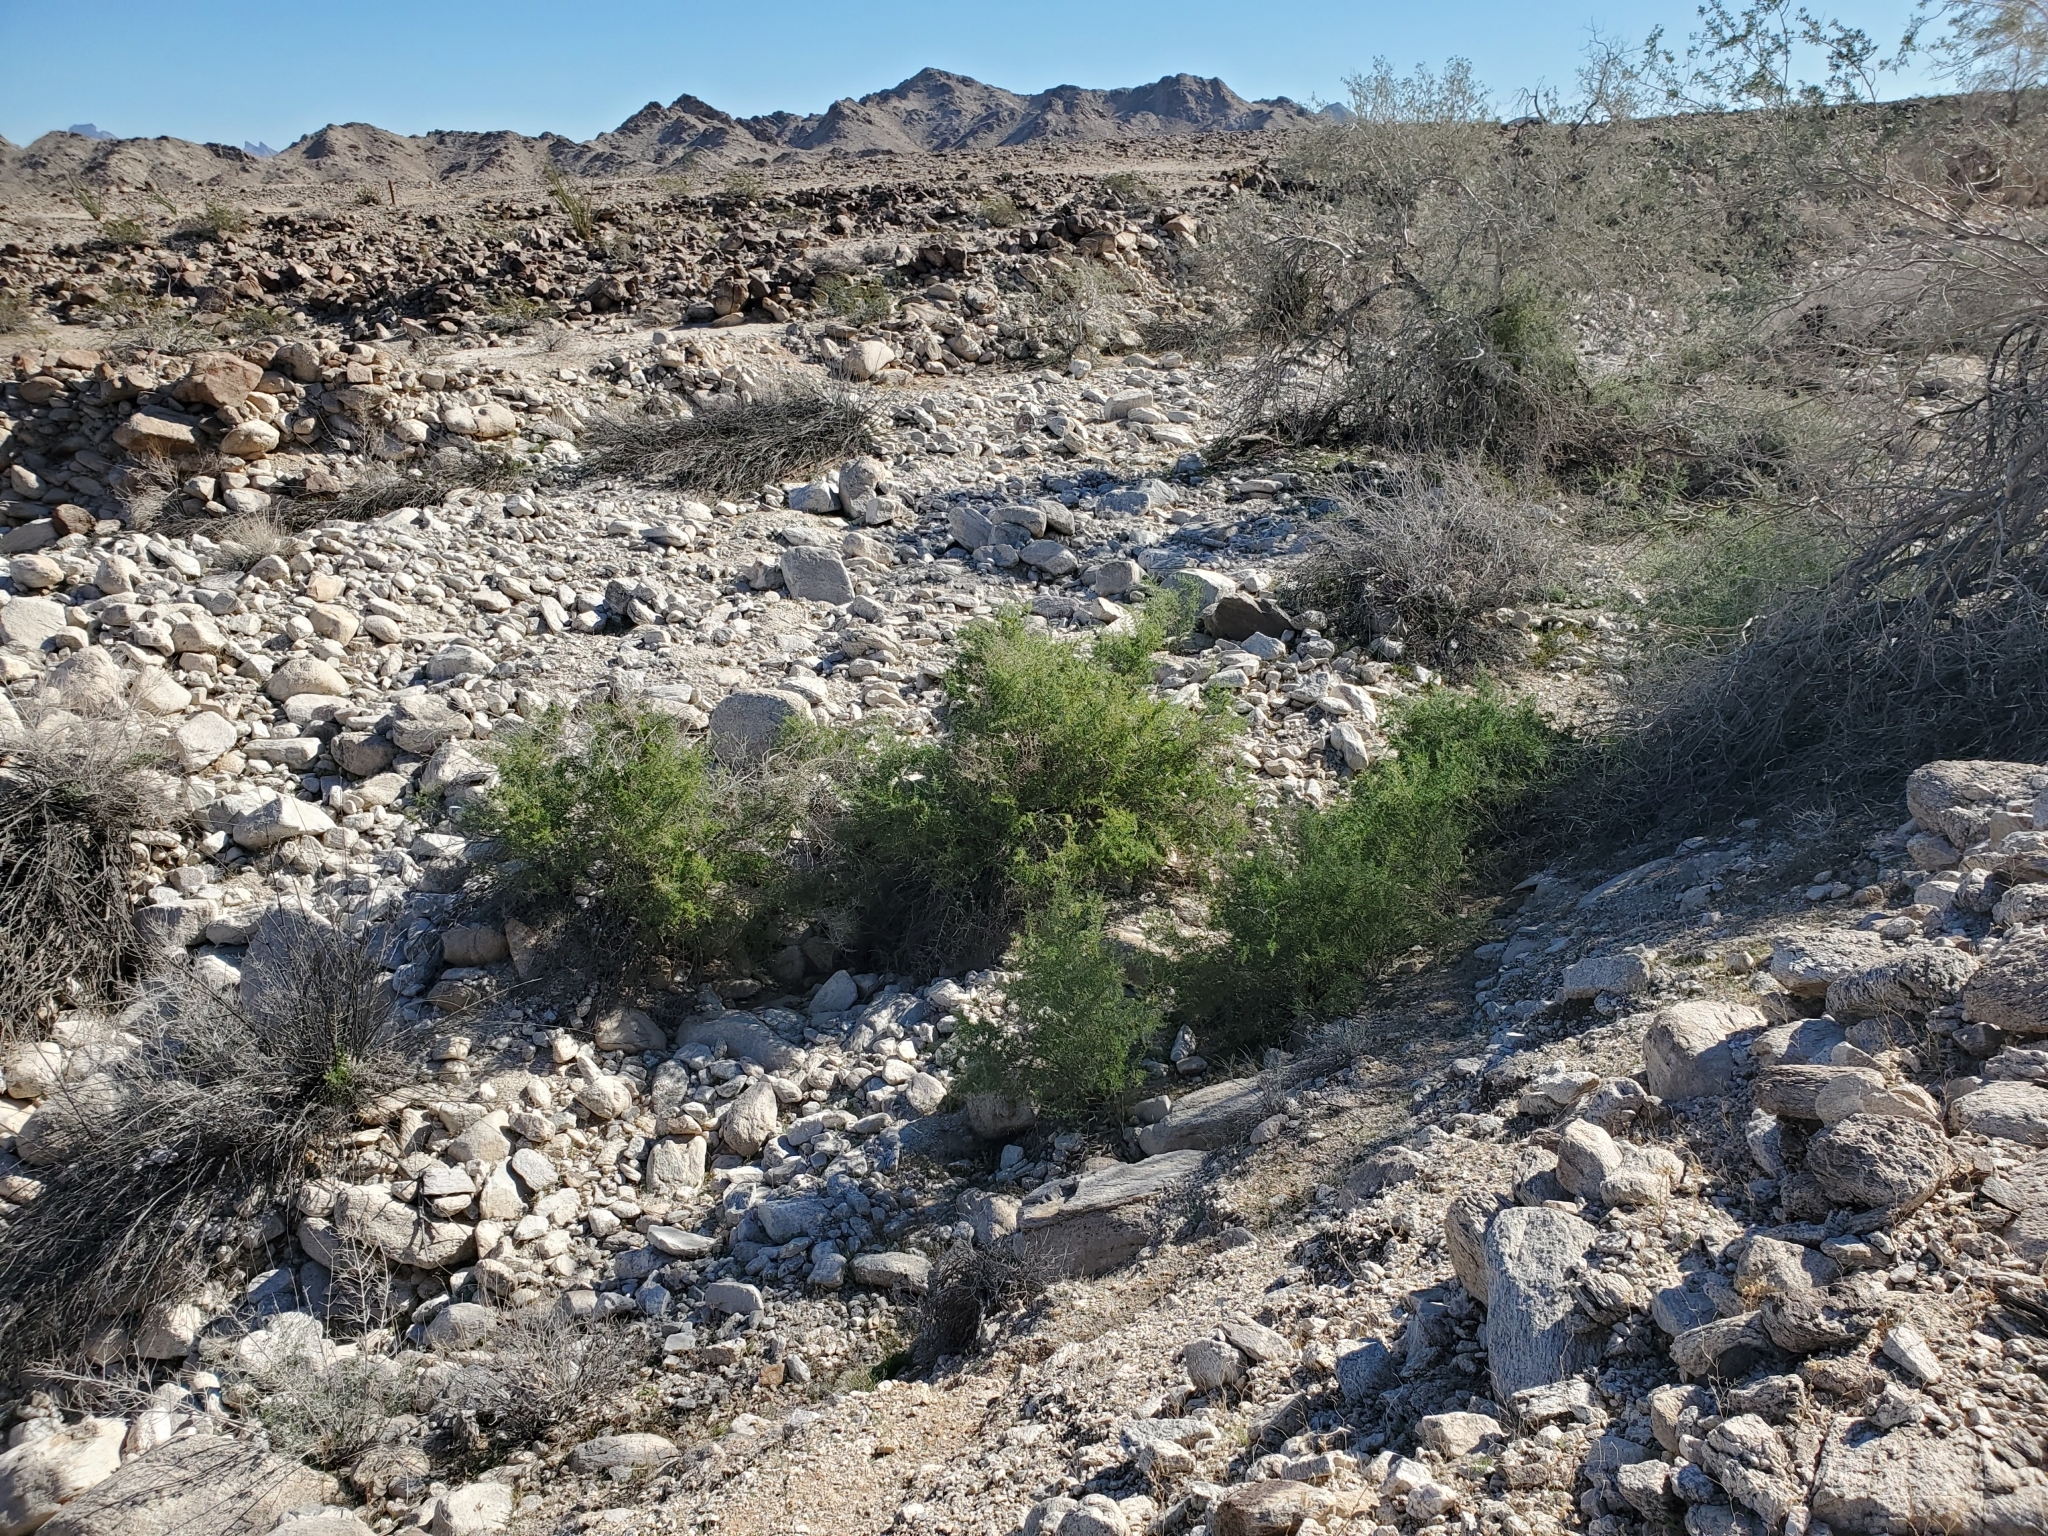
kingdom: Plantae
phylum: Tracheophyta
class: Magnoliopsida
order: Solanales
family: Solanaceae
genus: Lycium
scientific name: Lycium andersonii
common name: Water-jacket
